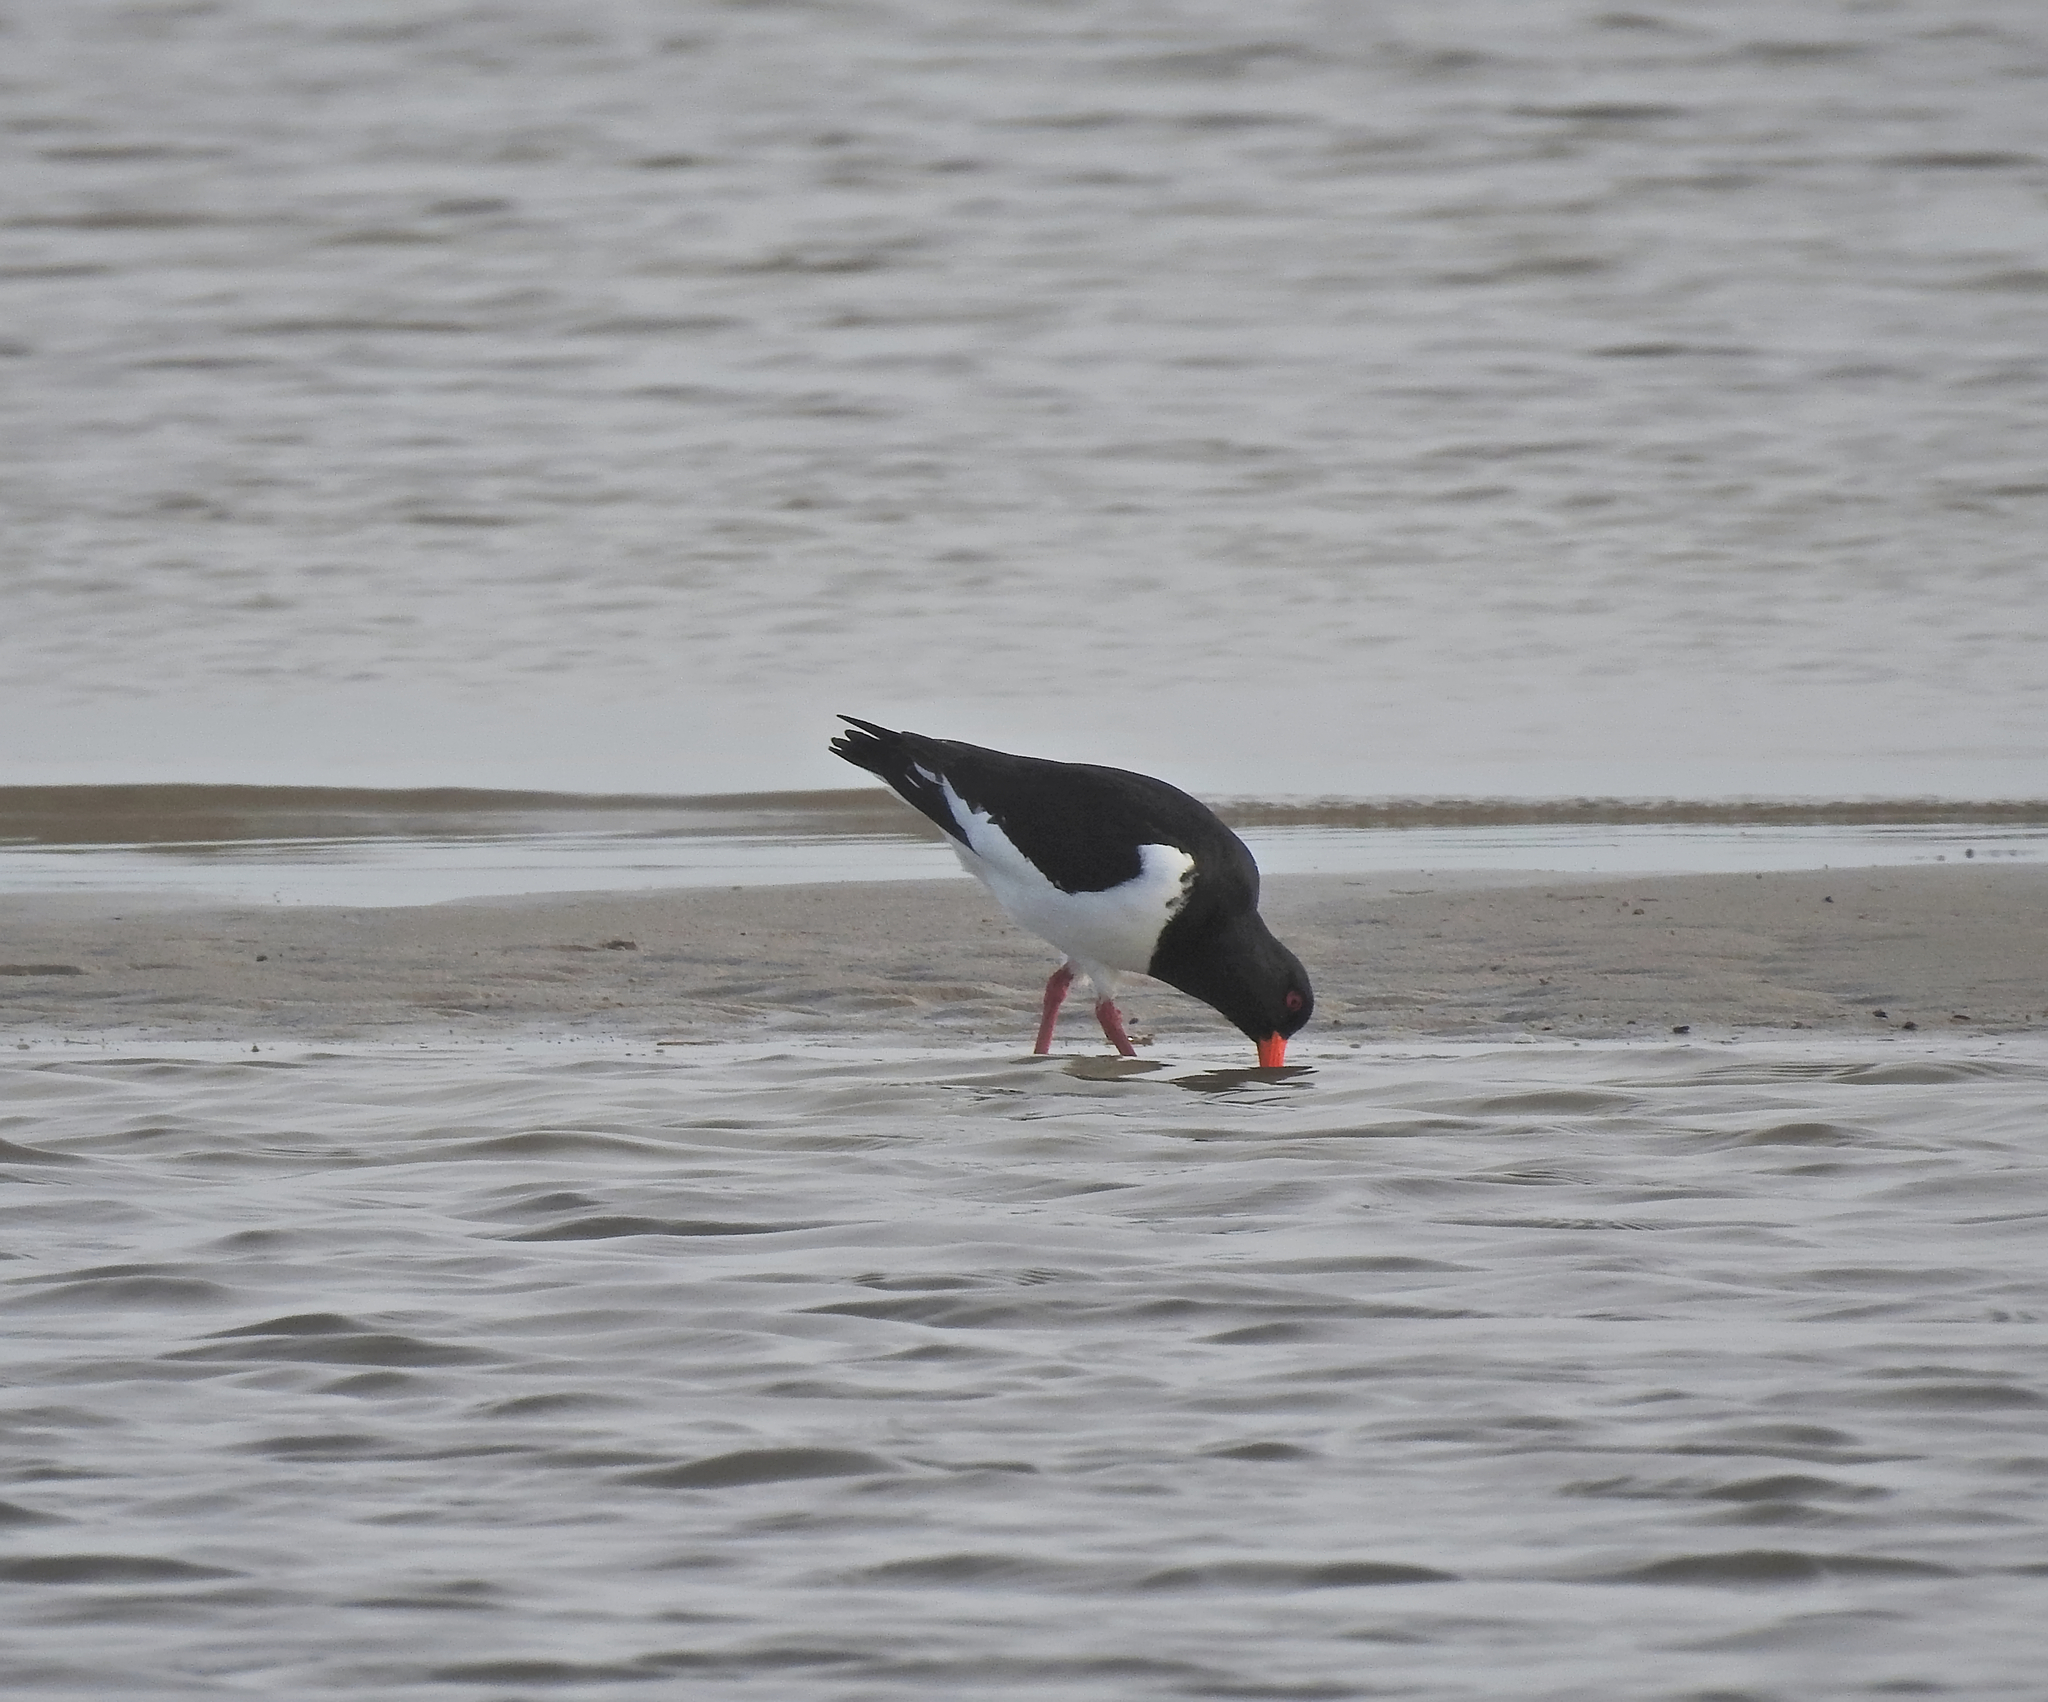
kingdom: Animalia
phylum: Chordata
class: Aves
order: Charadriiformes
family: Haematopodidae
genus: Haematopus
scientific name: Haematopus ostralegus
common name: Eurasian oystercatcher
